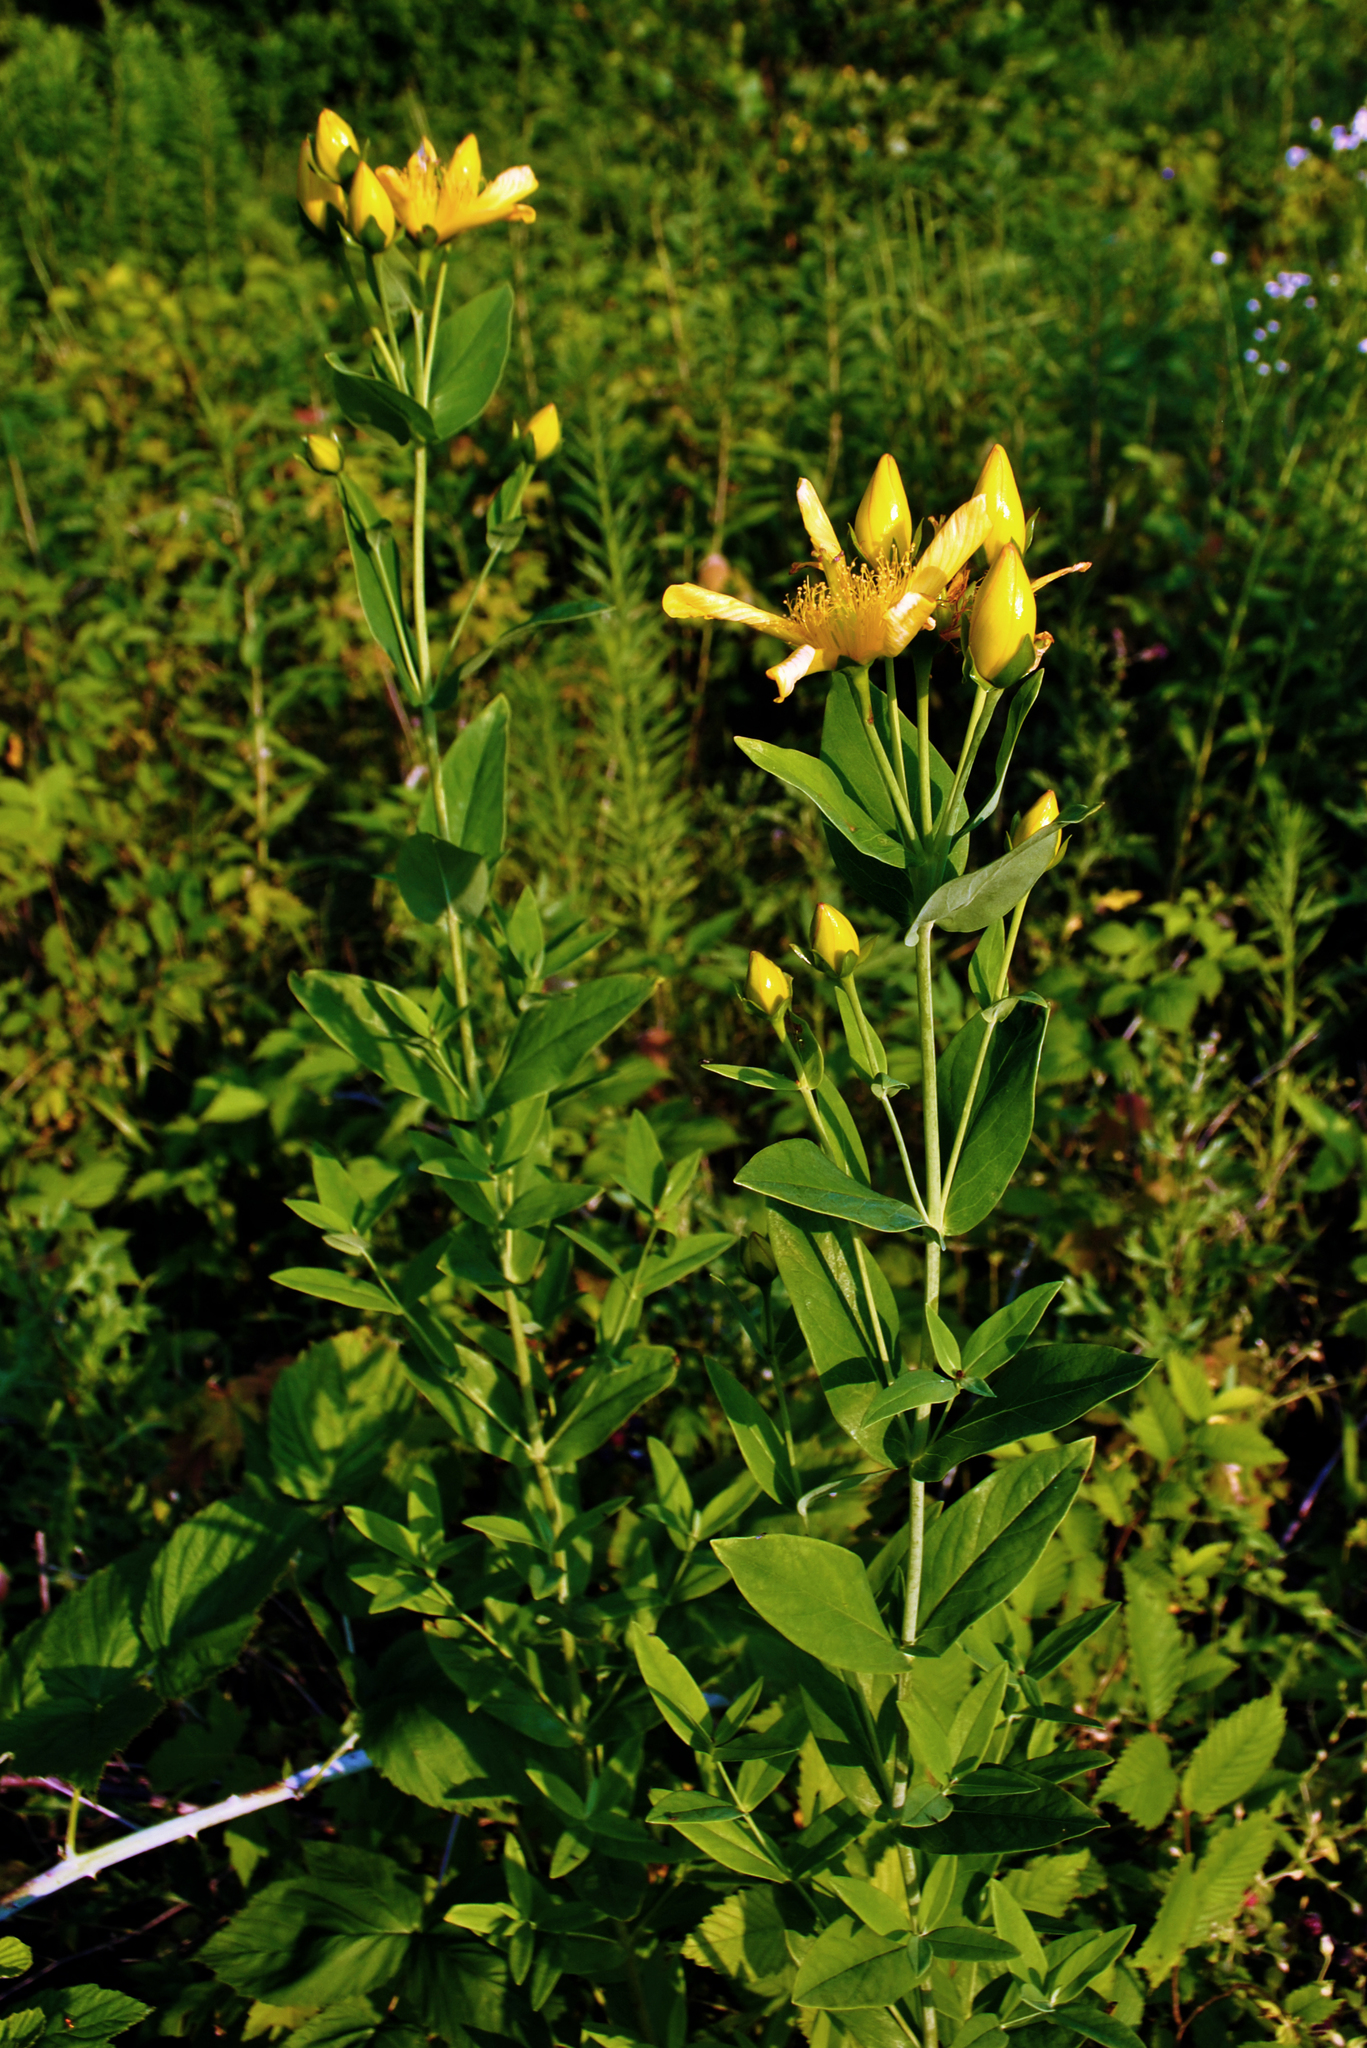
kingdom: Plantae
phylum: Tracheophyta
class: Magnoliopsida
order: Malpighiales
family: Hypericaceae
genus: Hypericum
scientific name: Hypericum ascyron
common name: Giant st. john's-wort
